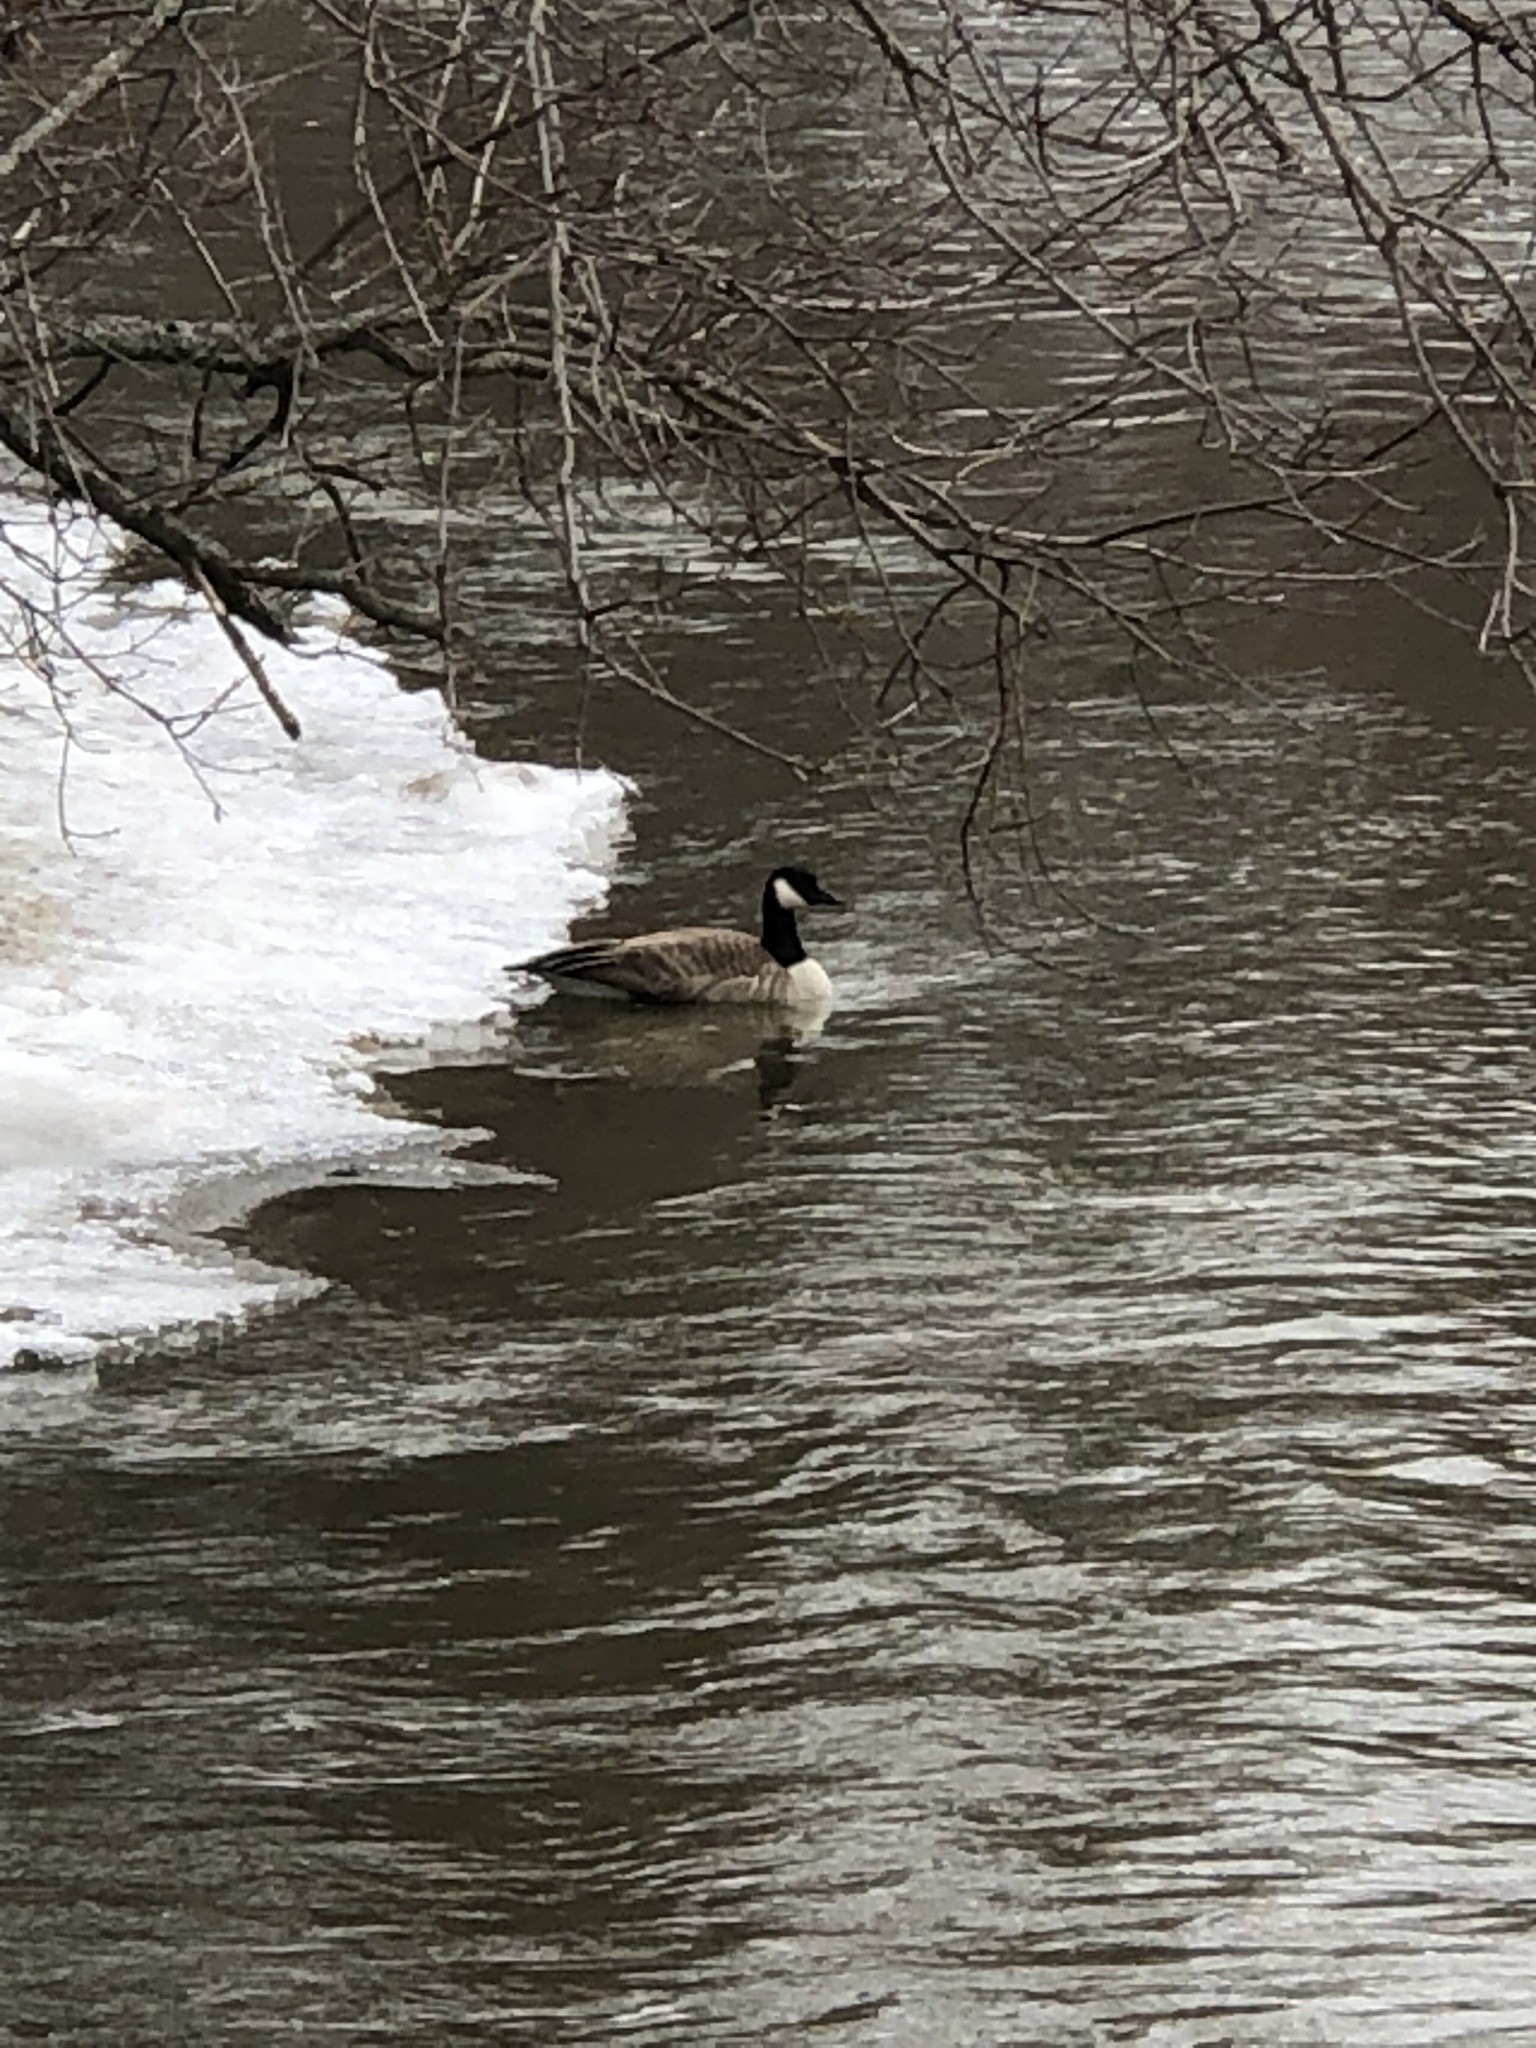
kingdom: Animalia
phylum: Chordata
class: Aves
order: Anseriformes
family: Anatidae
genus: Branta
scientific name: Branta canadensis
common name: Canada goose
